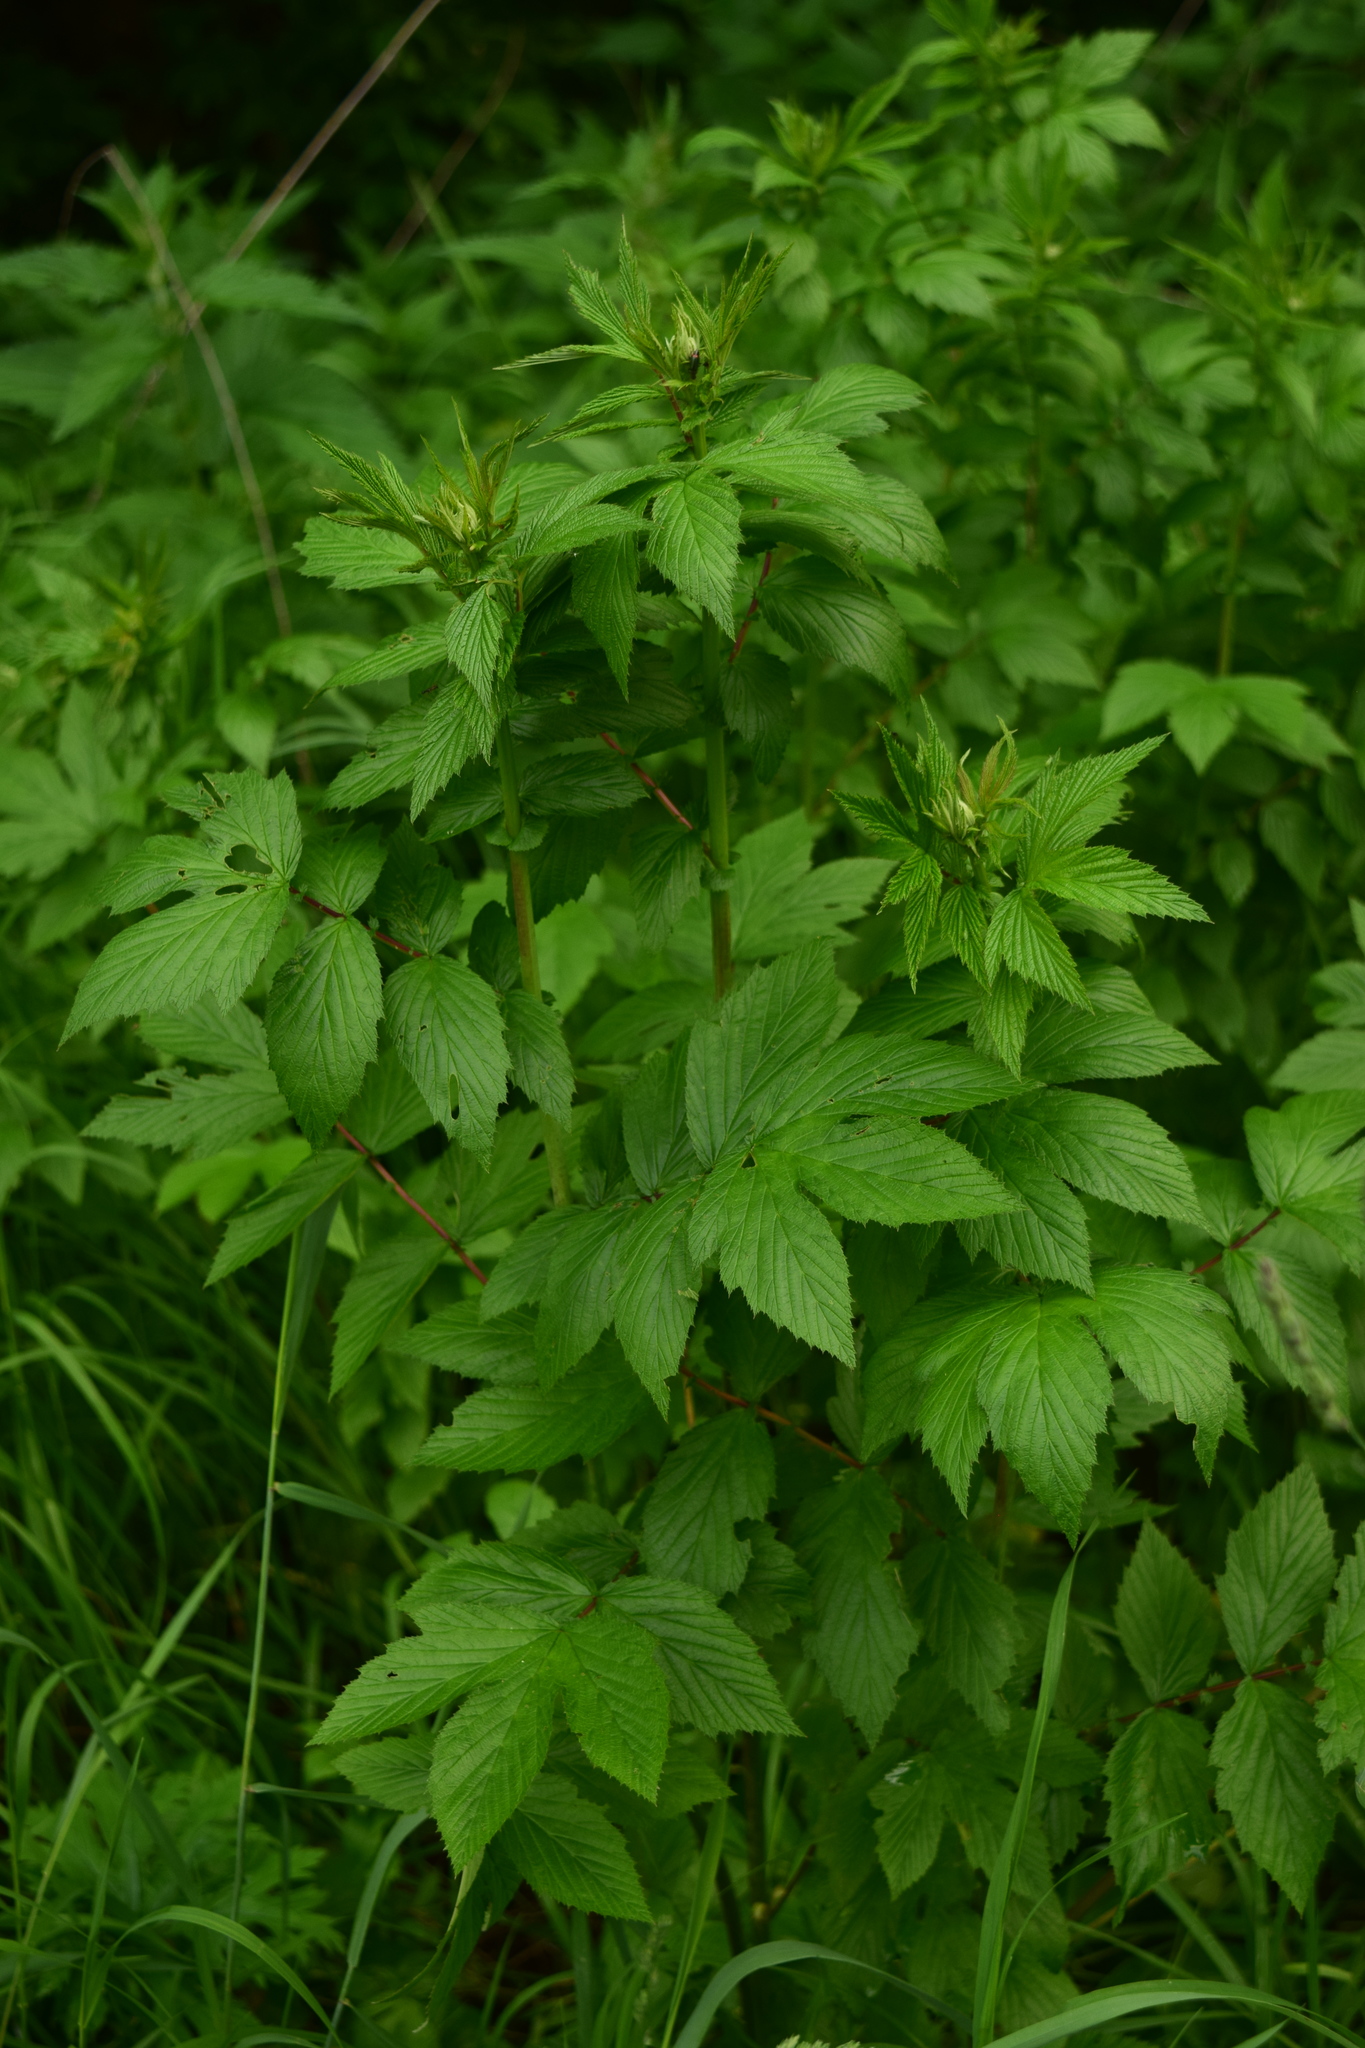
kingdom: Plantae
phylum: Tracheophyta
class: Magnoliopsida
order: Rosales
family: Rosaceae
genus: Filipendula
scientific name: Filipendula ulmaria
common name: Meadowsweet
